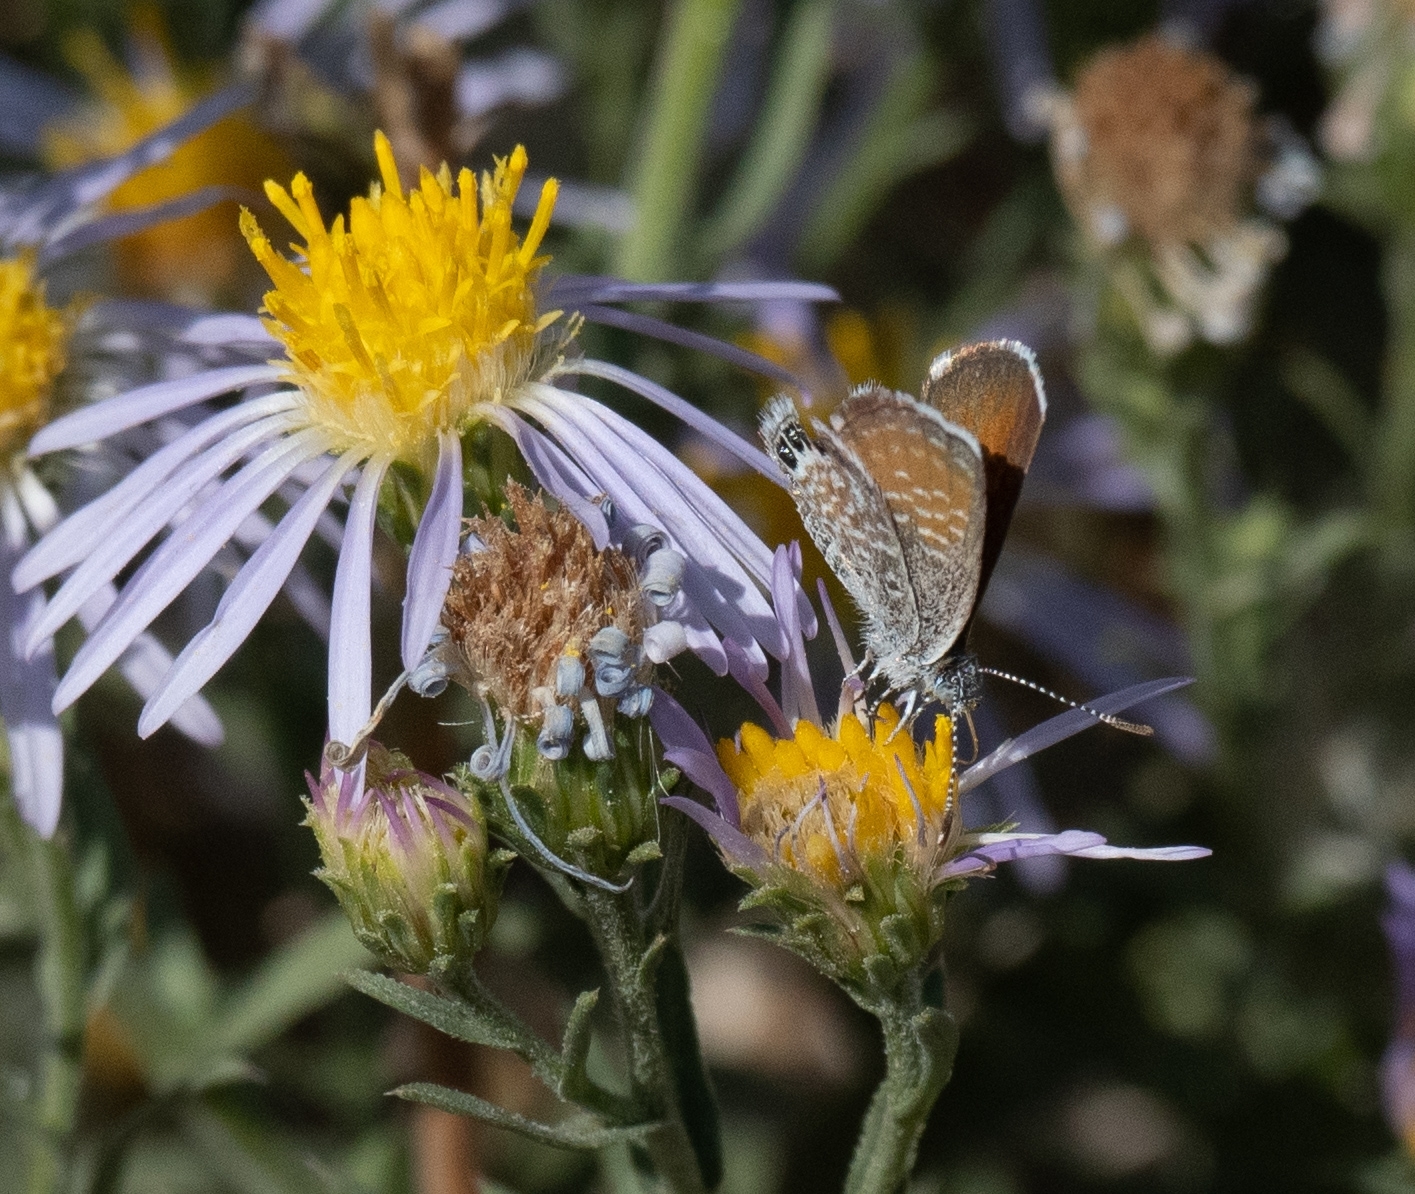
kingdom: Animalia
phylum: Arthropoda
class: Insecta
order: Lepidoptera
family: Lycaenidae
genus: Brephidium
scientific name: Brephidium exilis
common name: Pygmy blue
